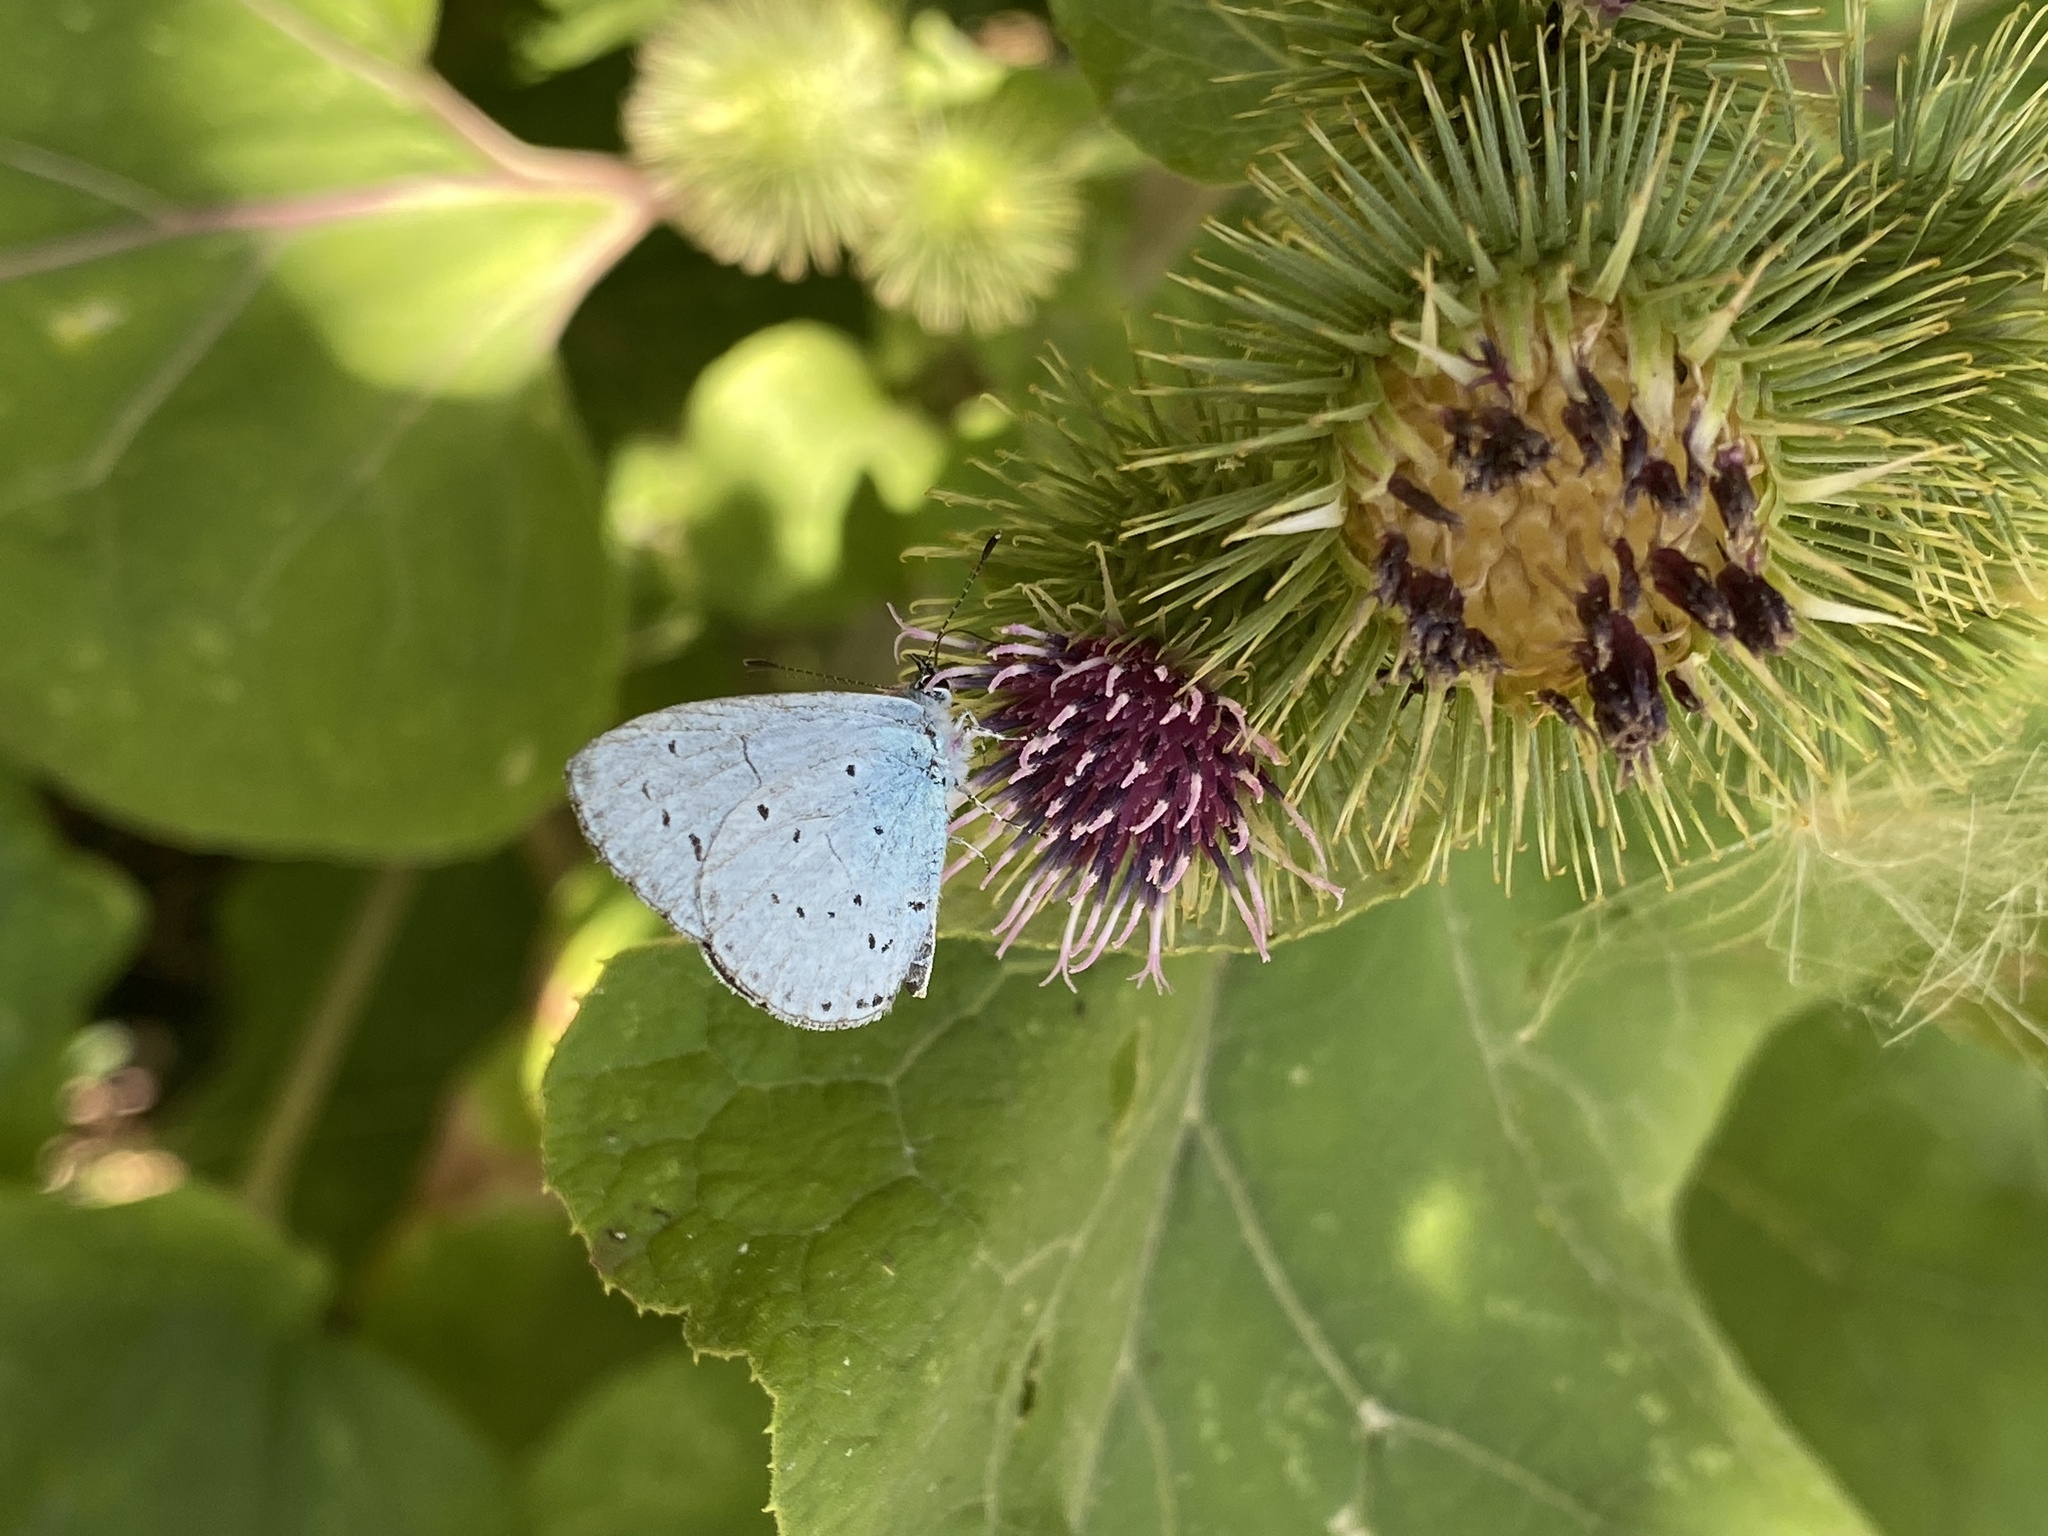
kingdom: Animalia
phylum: Arthropoda
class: Insecta
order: Lepidoptera
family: Lycaenidae
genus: Celastrina
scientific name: Celastrina argiolus
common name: Holly blue
